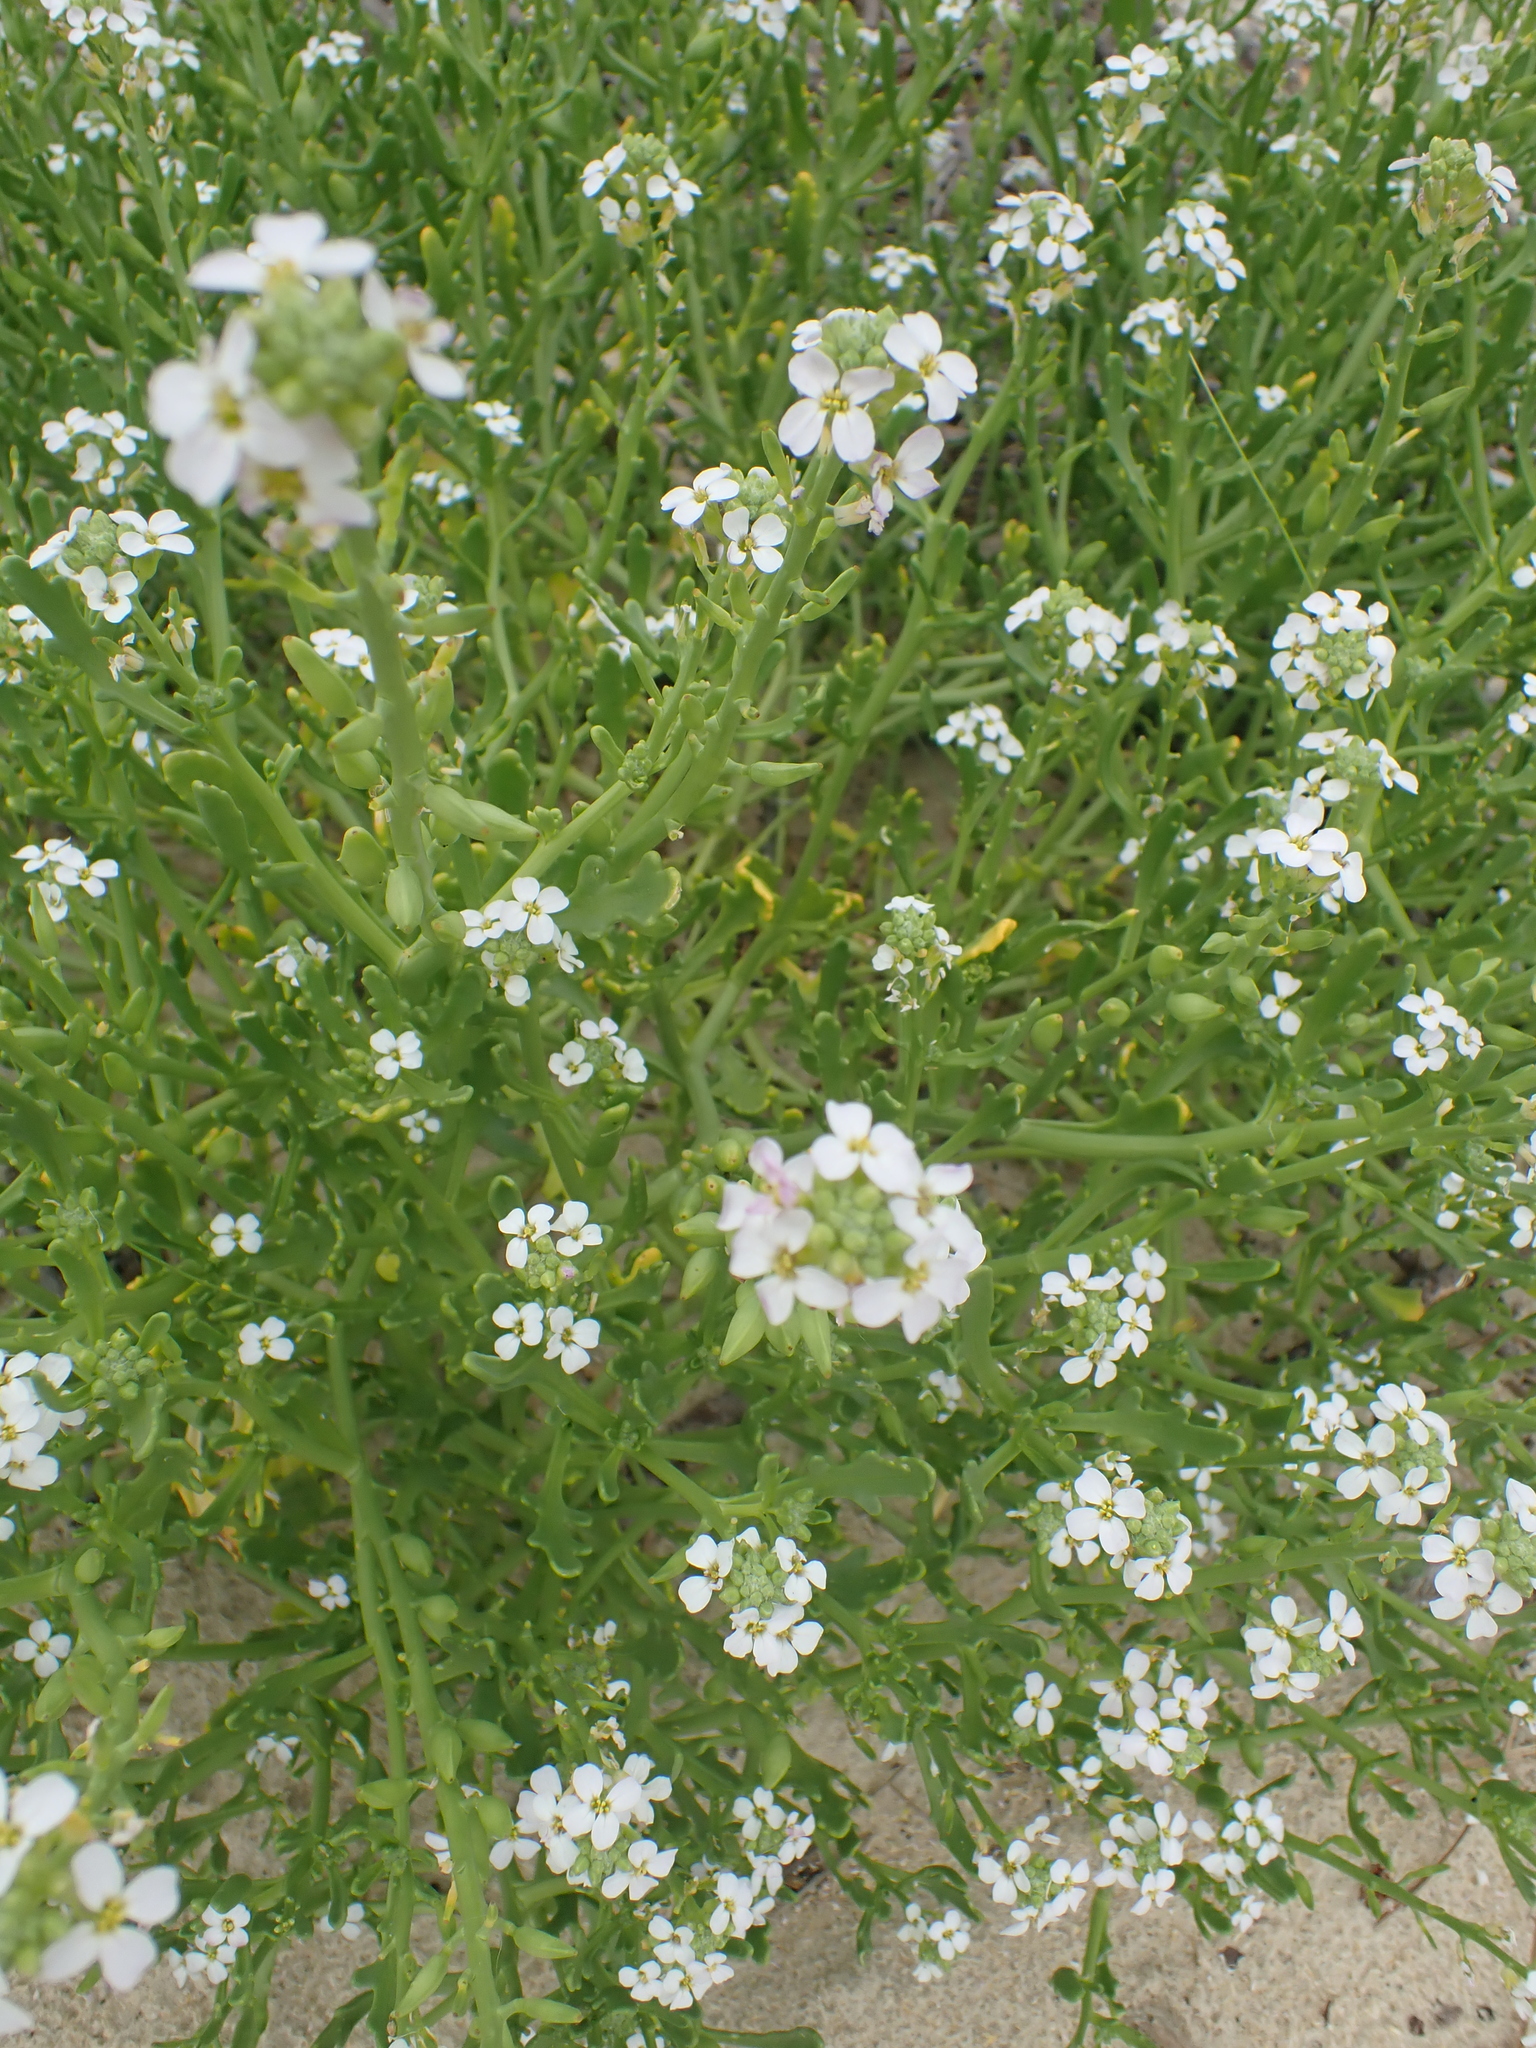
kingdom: Plantae
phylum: Tracheophyta
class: Magnoliopsida
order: Brassicales
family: Brassicaceae
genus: Cakile
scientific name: Cakile maritima
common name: Sea rocket
